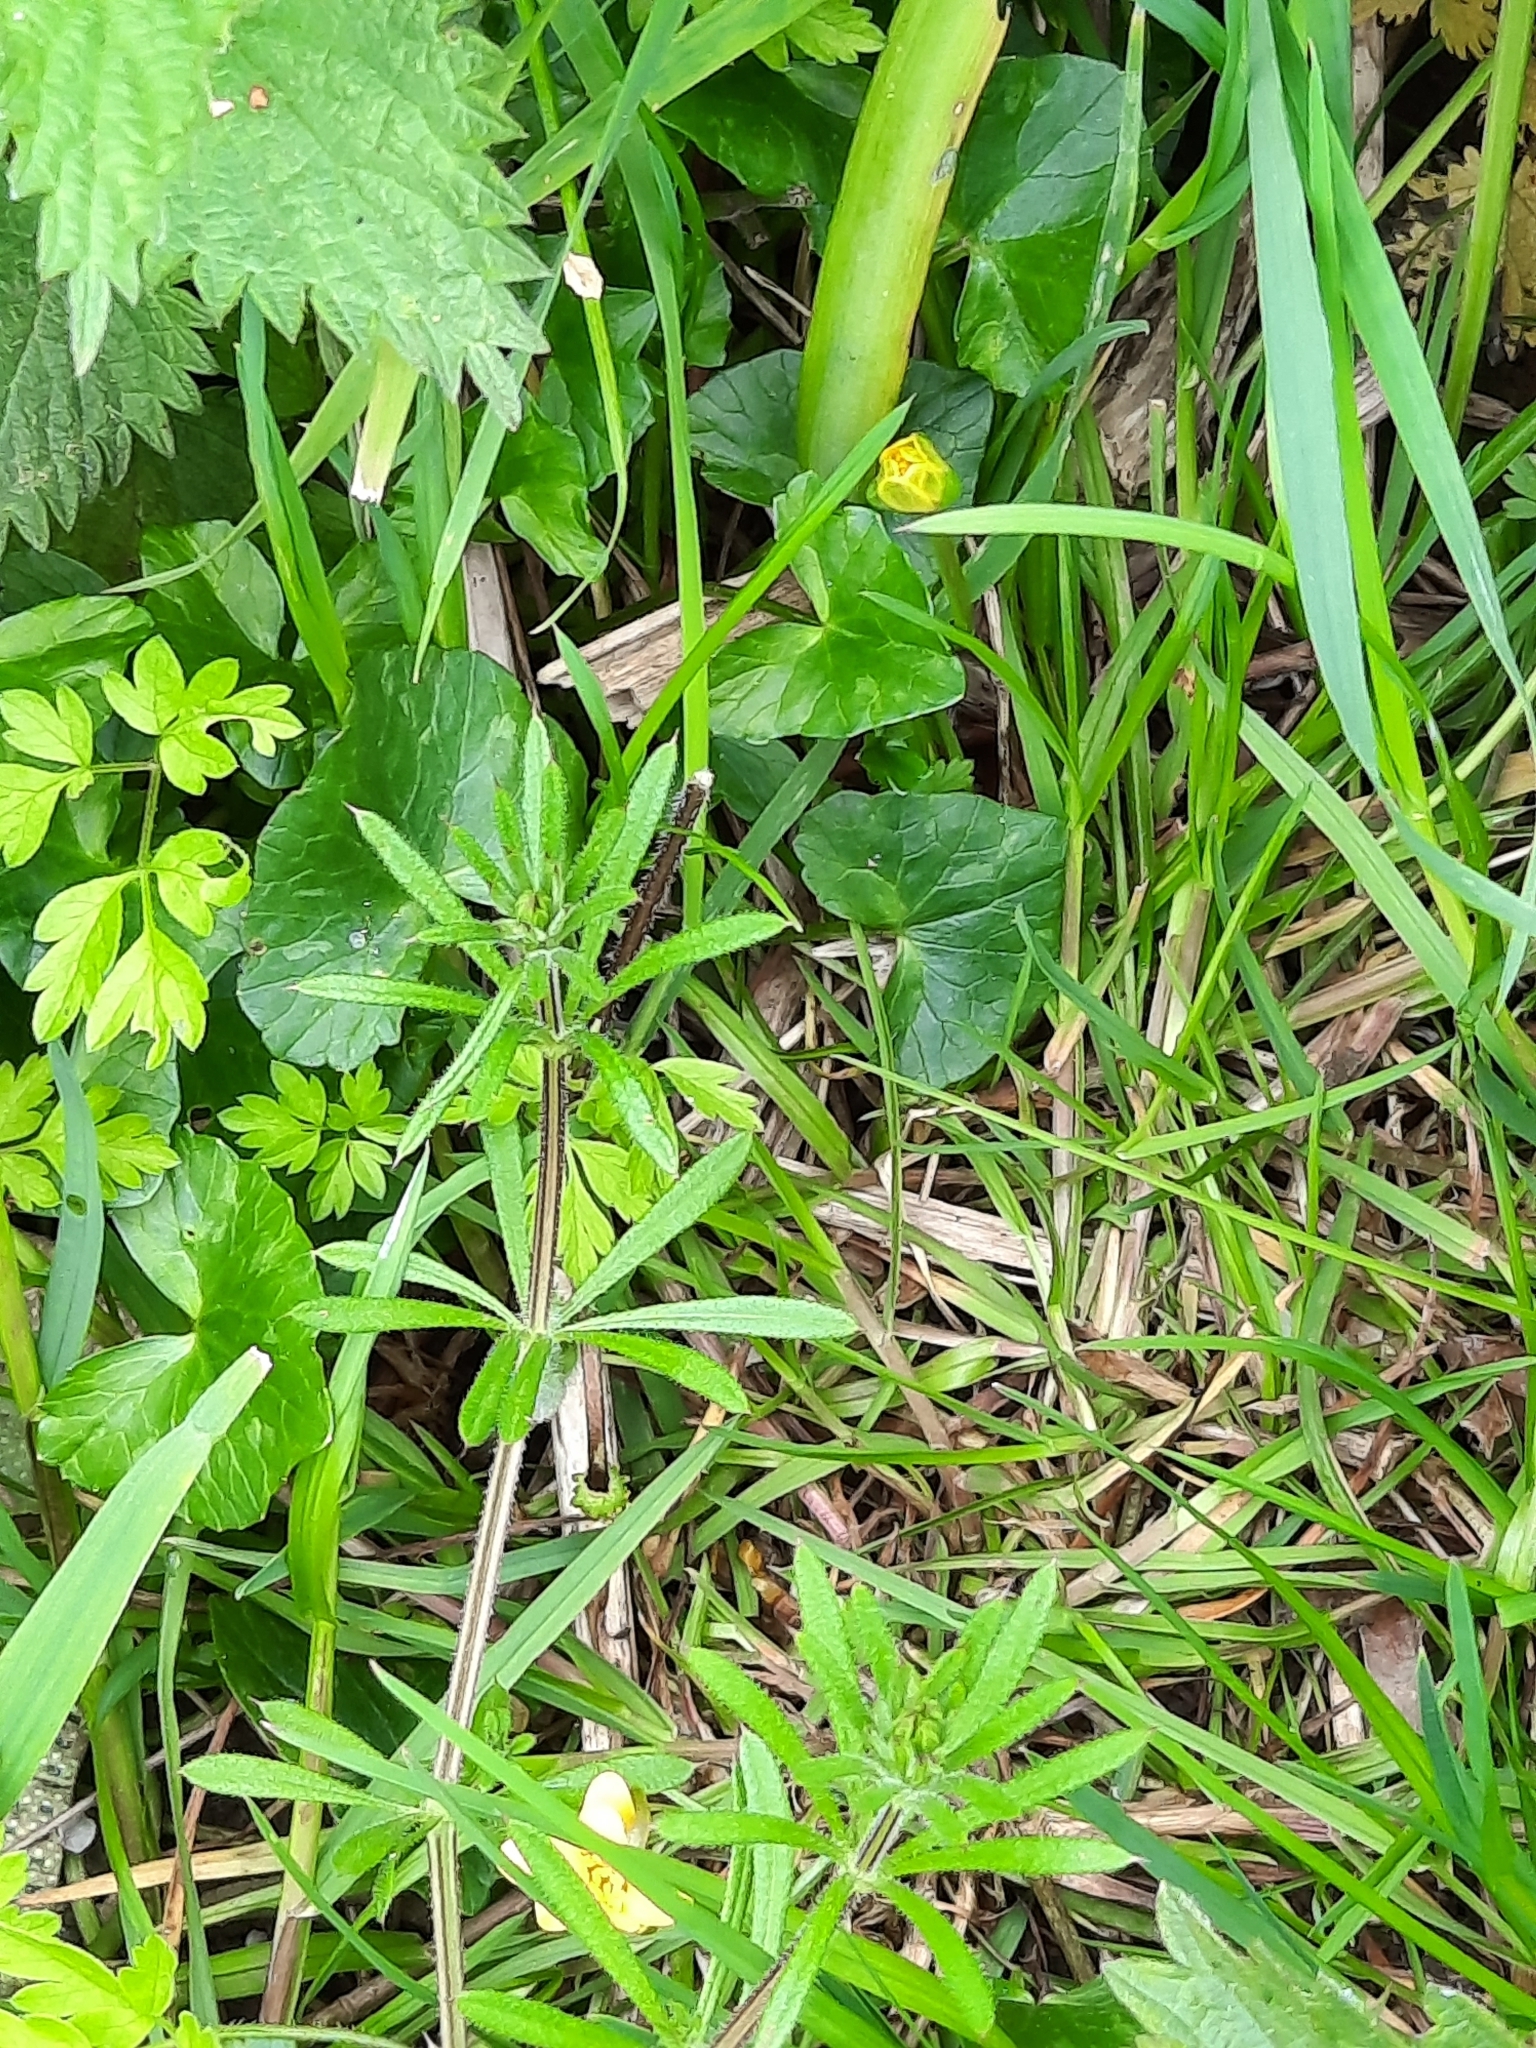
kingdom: Plantae
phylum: Tracheophyta
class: Magnoliopsida
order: Ranunculales
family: Ranunculaceae
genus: Ficaria
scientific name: Ficaria verna
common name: Lesser celandine
